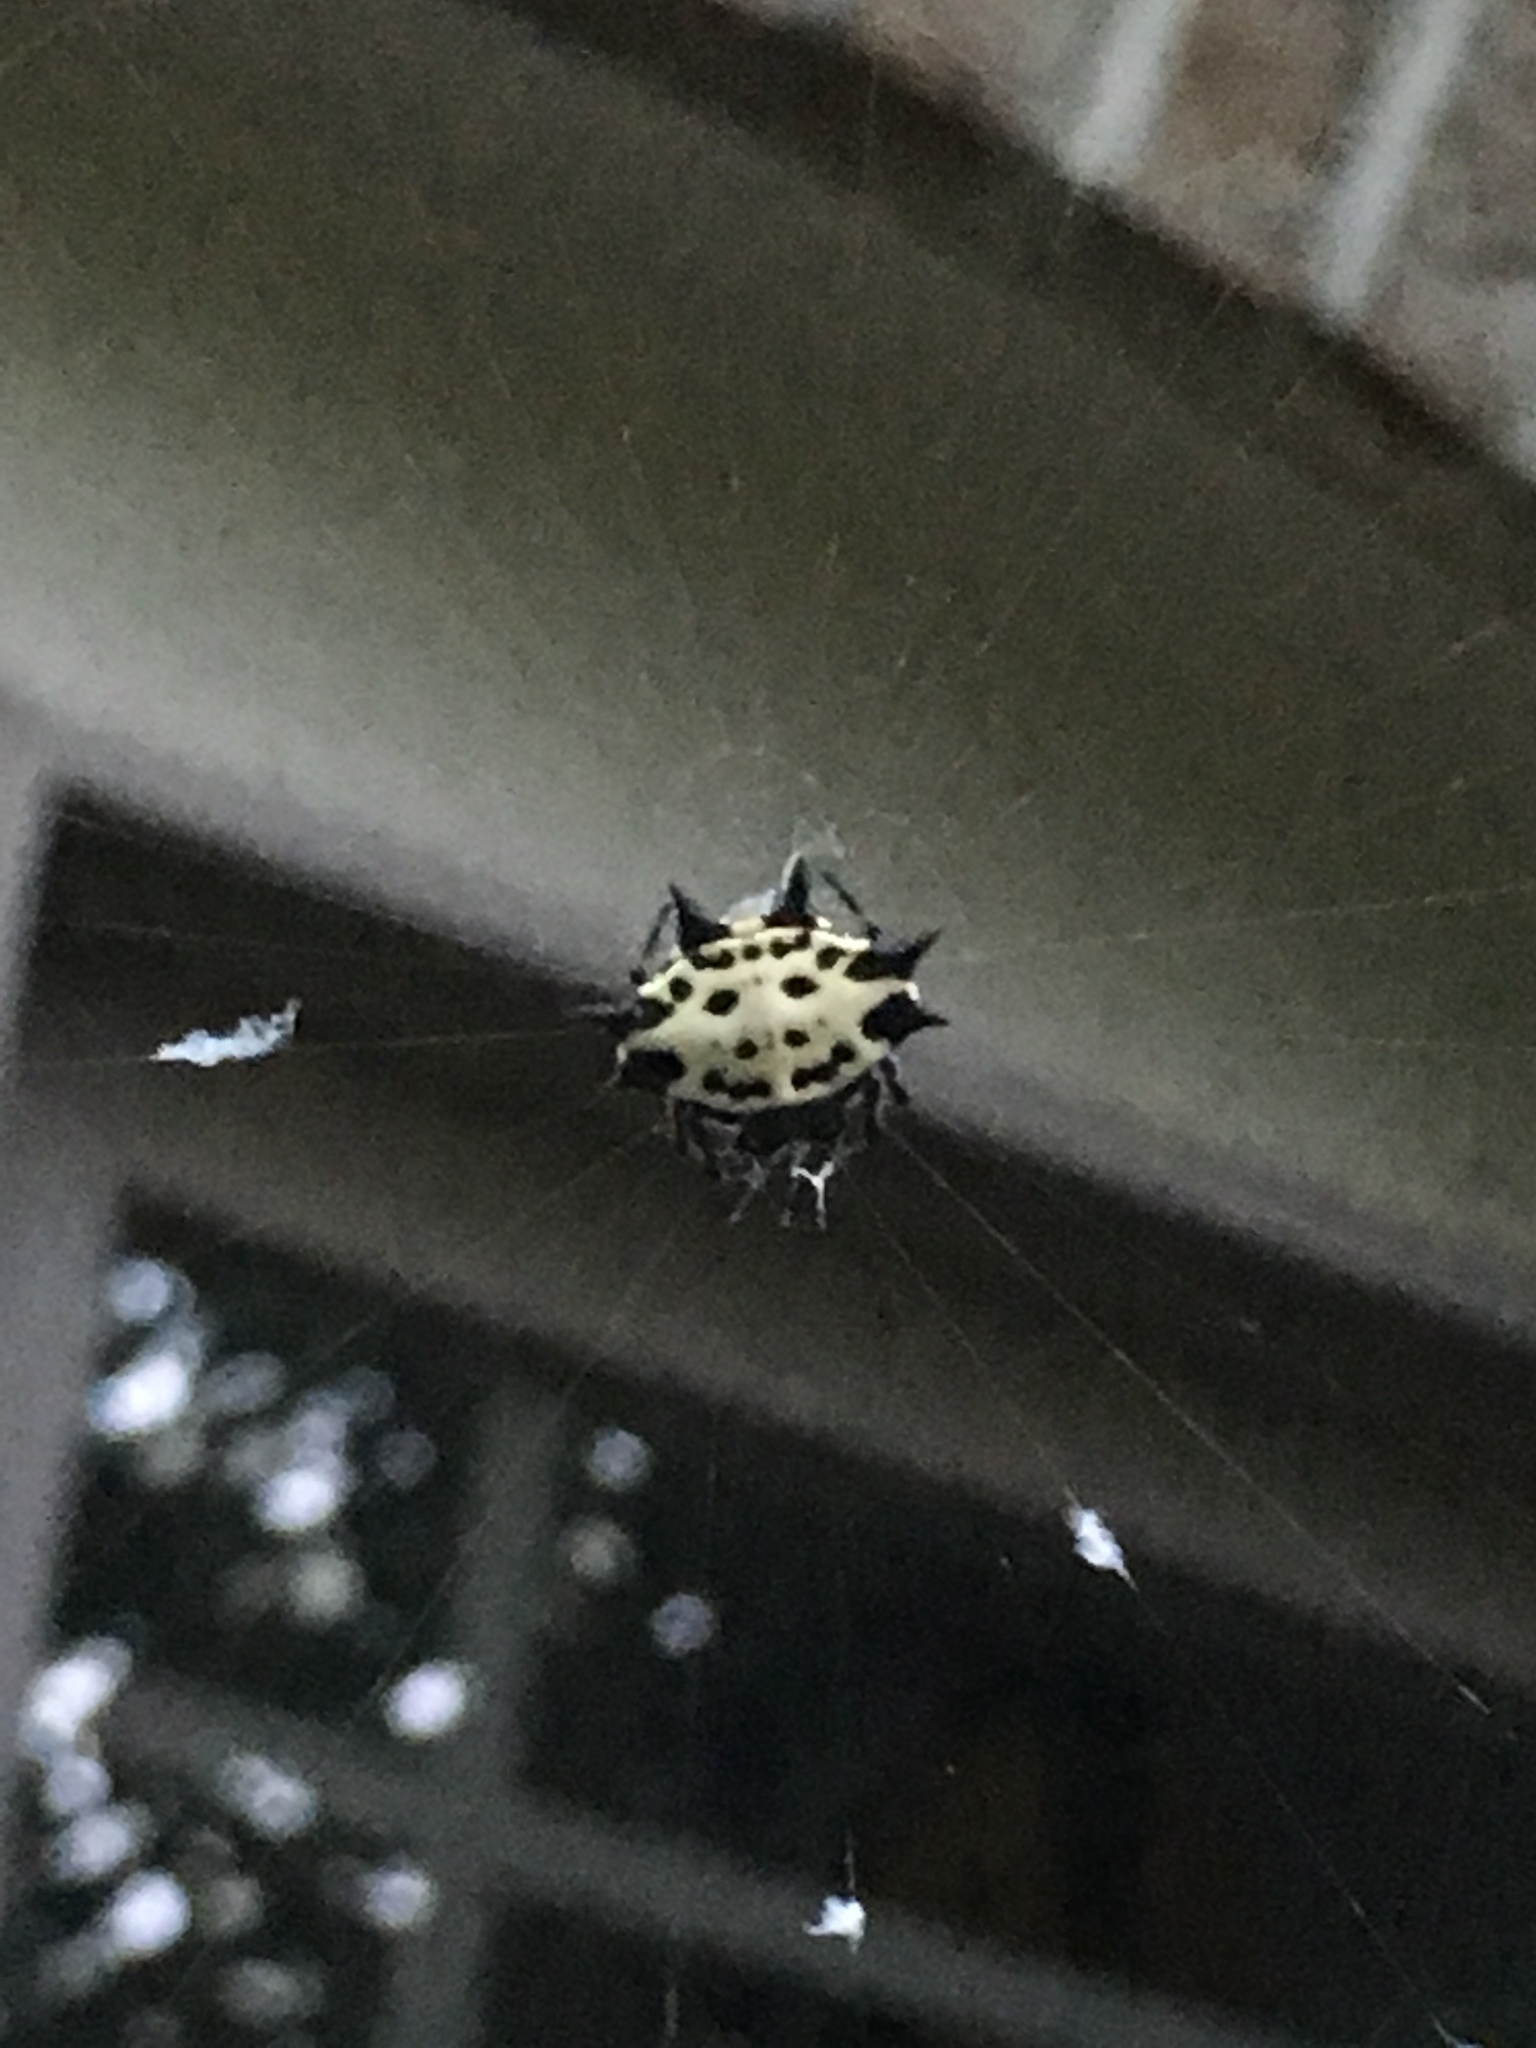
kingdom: Animalia
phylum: Arthropoda
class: Arachnida
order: Araneae
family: Araneidae
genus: Gasteracantha
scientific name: Gasteracantha cancriformis
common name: Orb weavers
